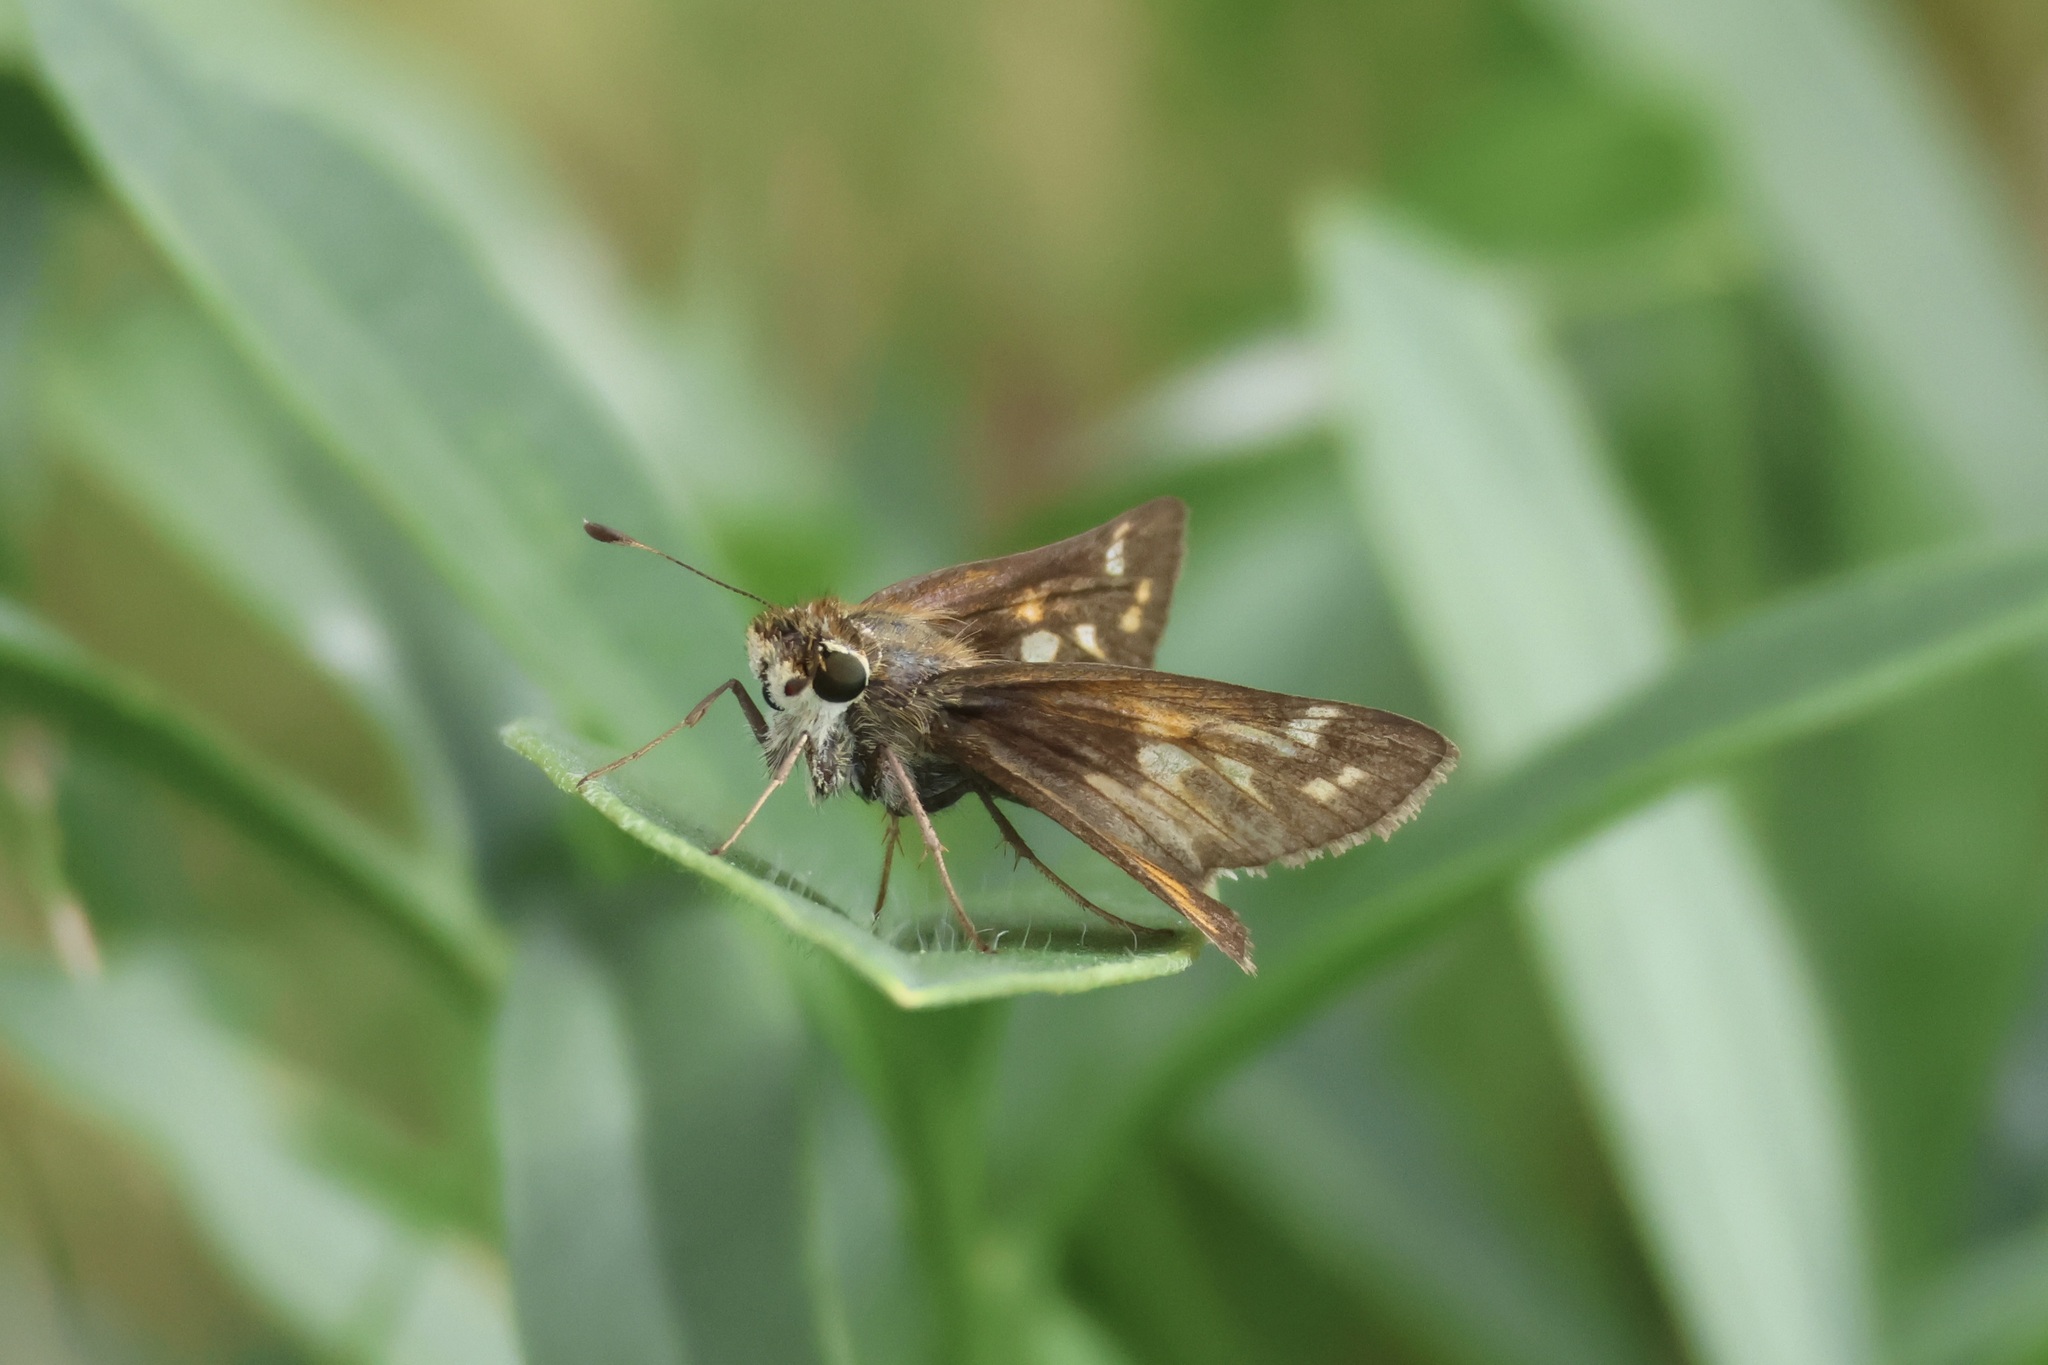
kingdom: Animalia
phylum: Arthropoda
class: Insecta
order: Lepidoptera
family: Hesperiidae
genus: Atalopedes
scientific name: Atalopedes
